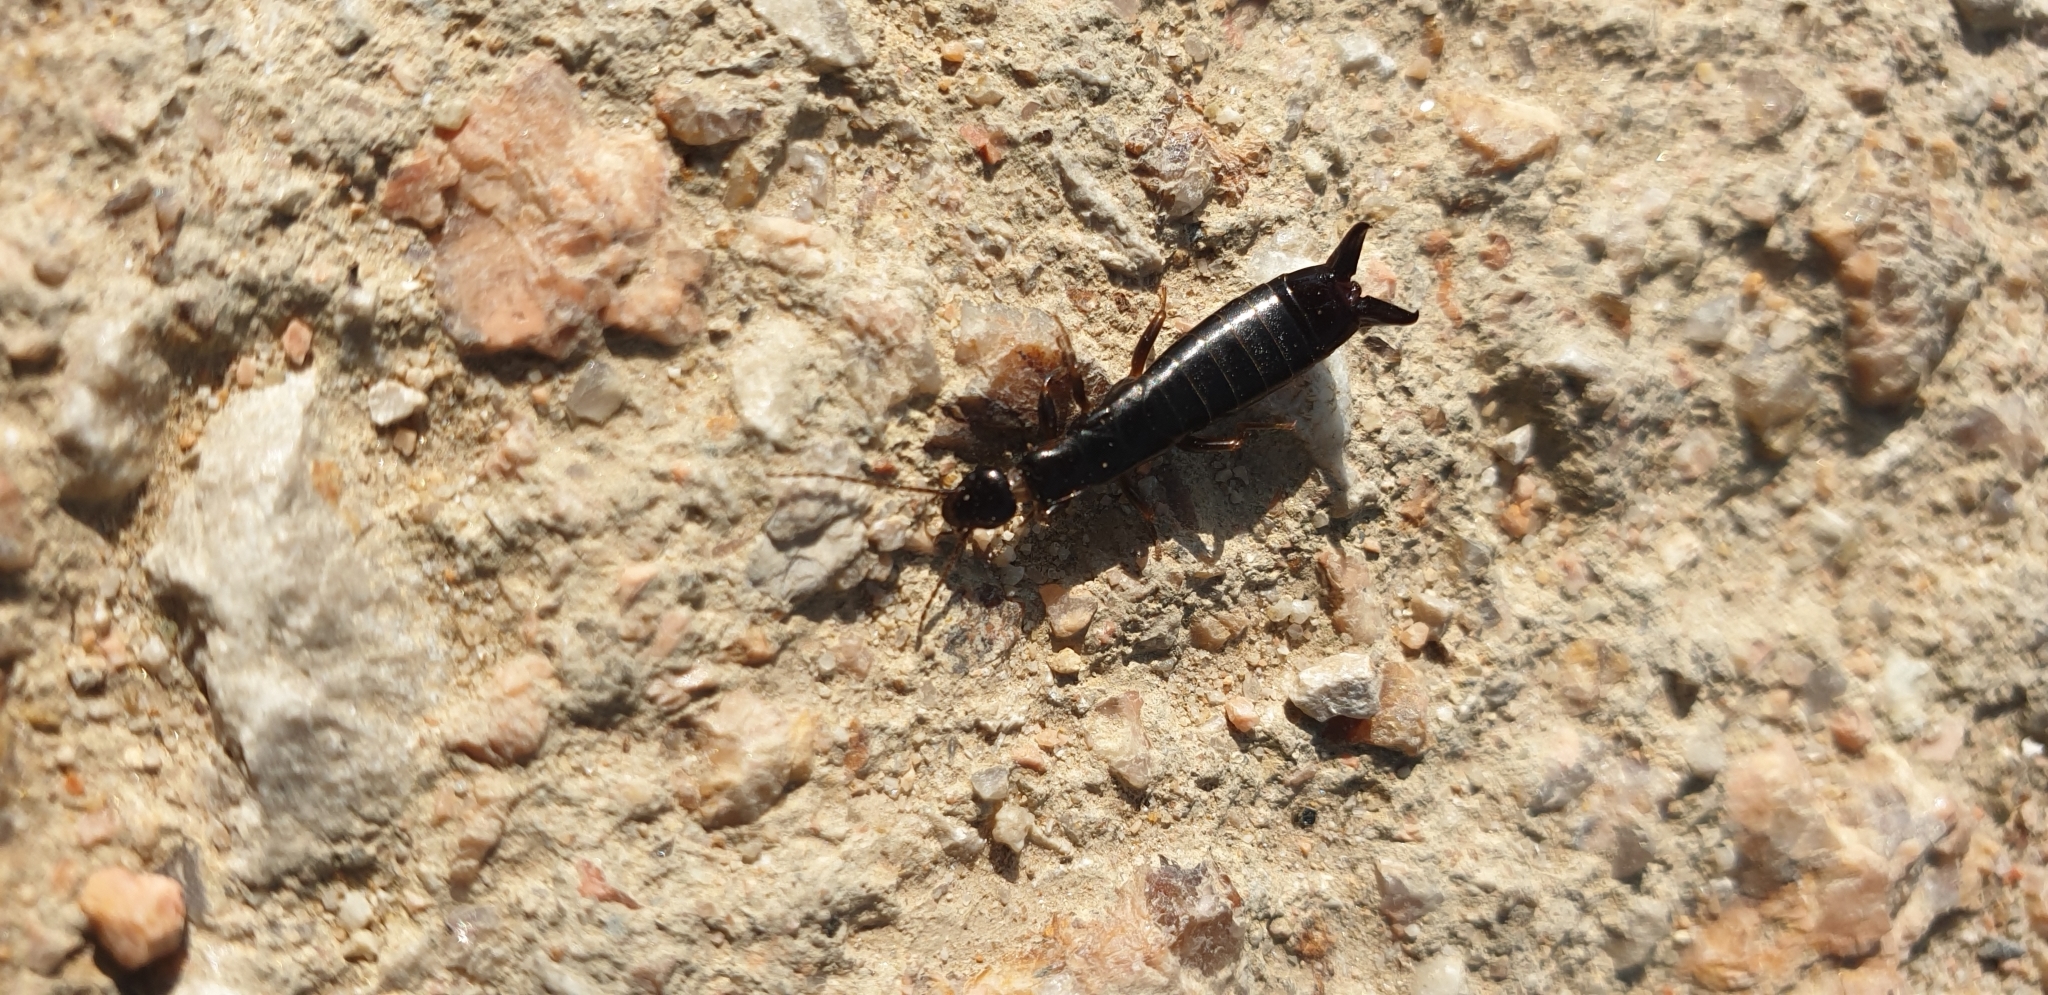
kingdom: Animalia
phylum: Arthropoda
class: Insecta
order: Dermaptera
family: Anisolabididae
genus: Euborellia
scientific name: Euborellia moesta
